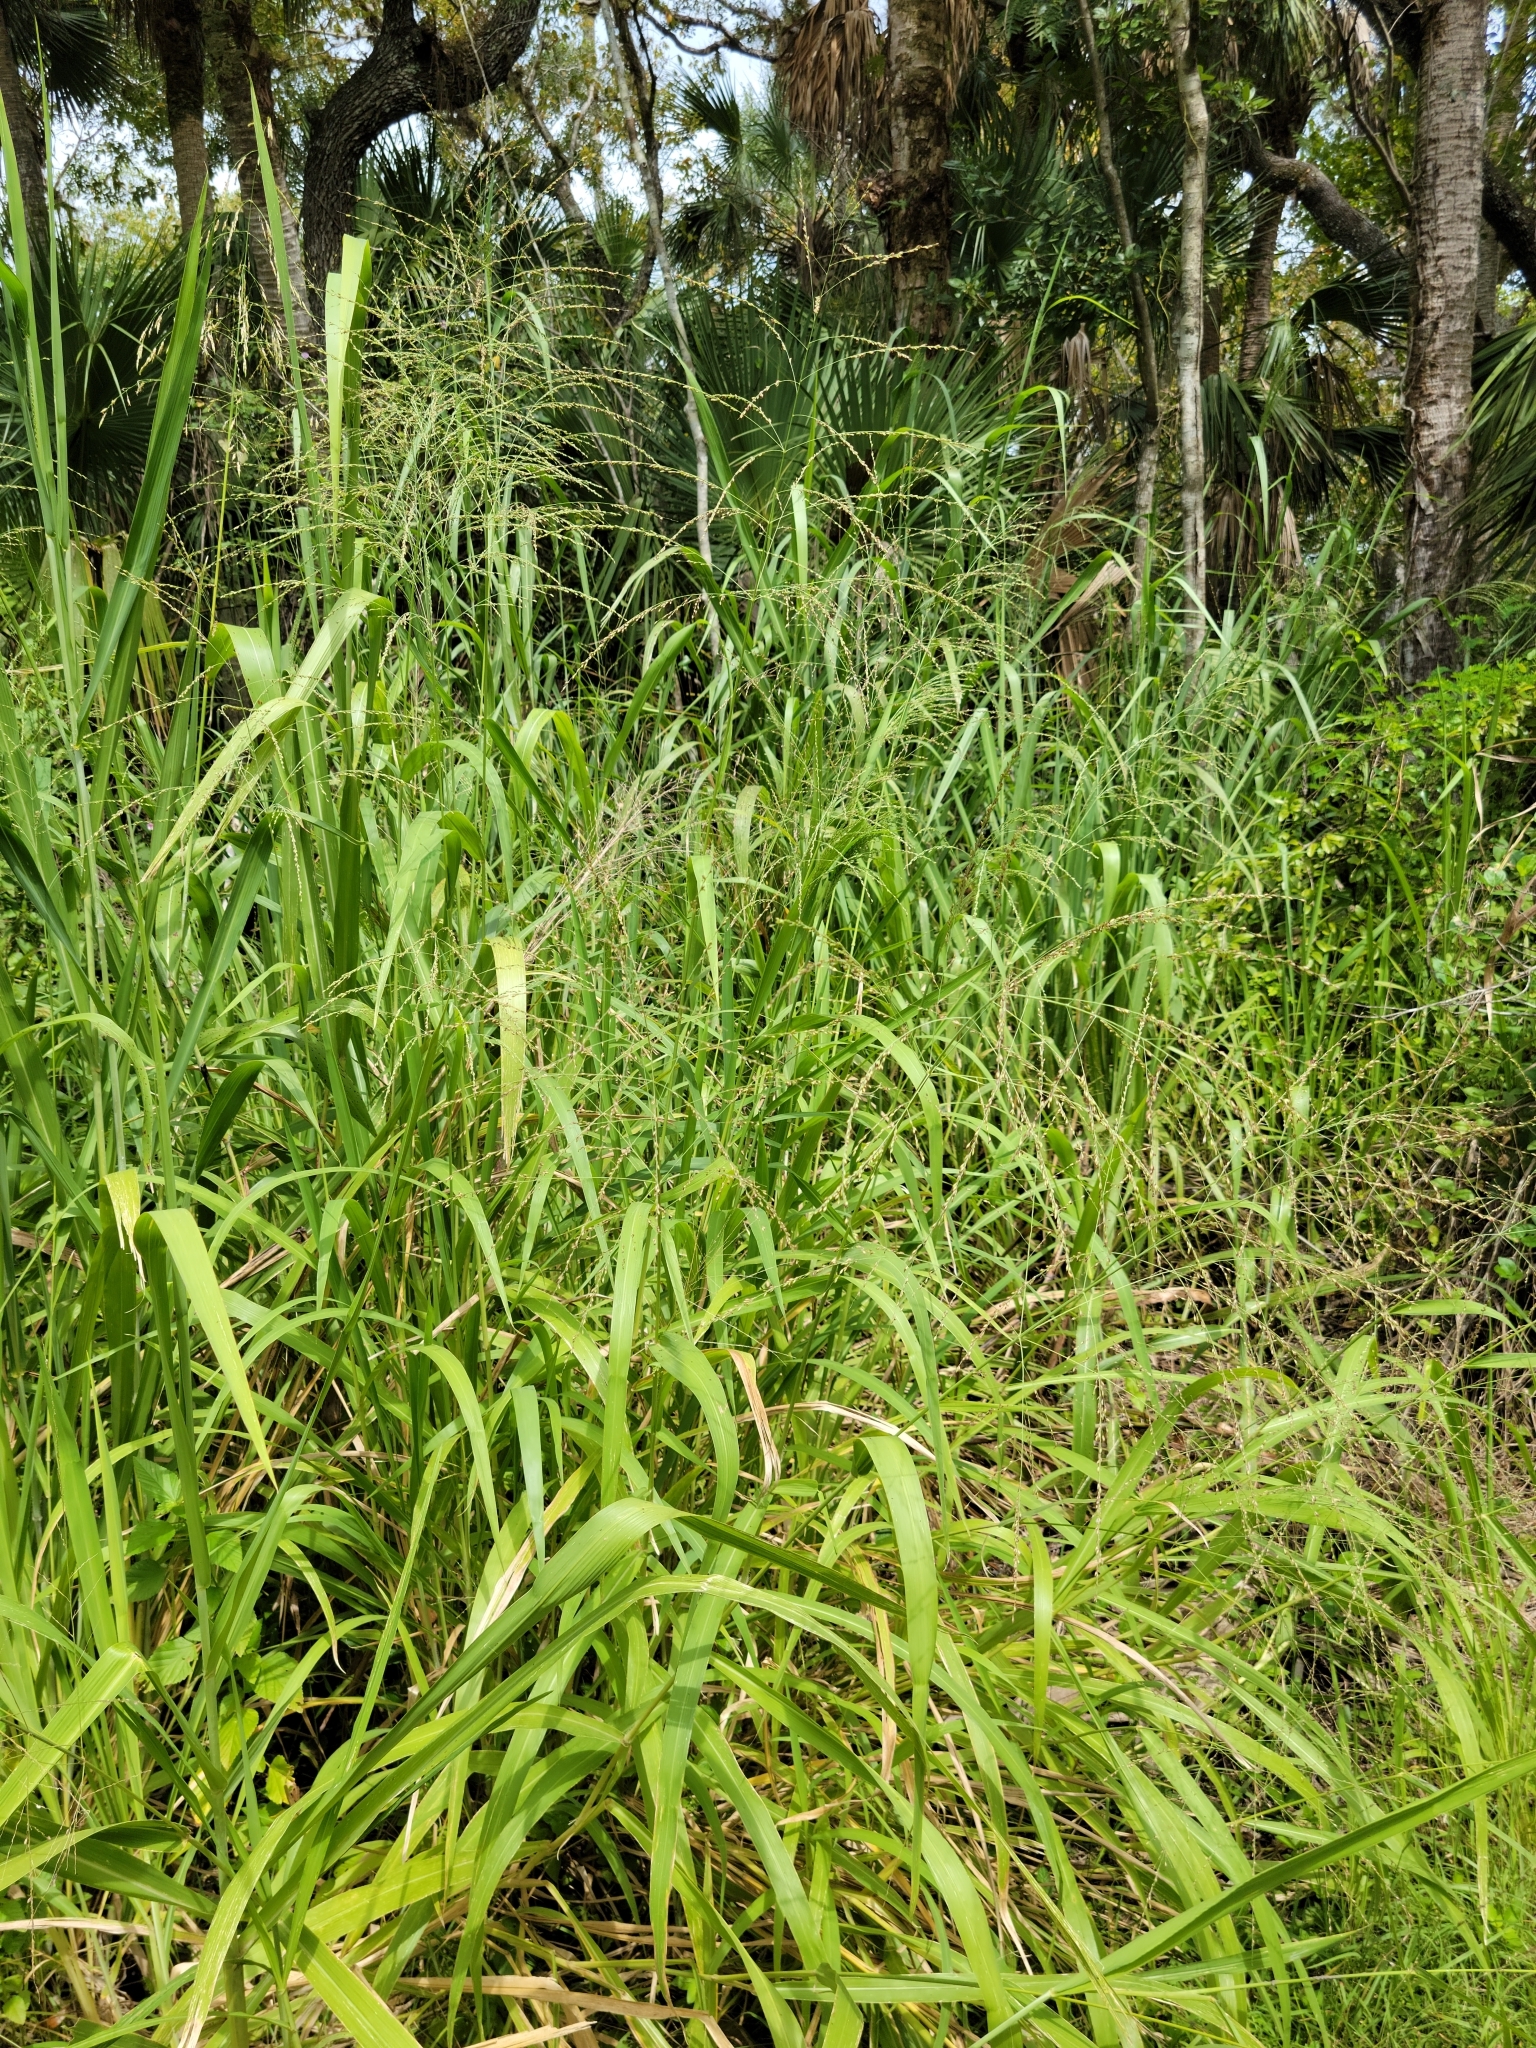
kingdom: Plantae
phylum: Tracheophyta
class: Liliopsida
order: Poales
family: Poaceae
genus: Megathyrsus
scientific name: Megathyrsus maximus
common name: Guineagrass
